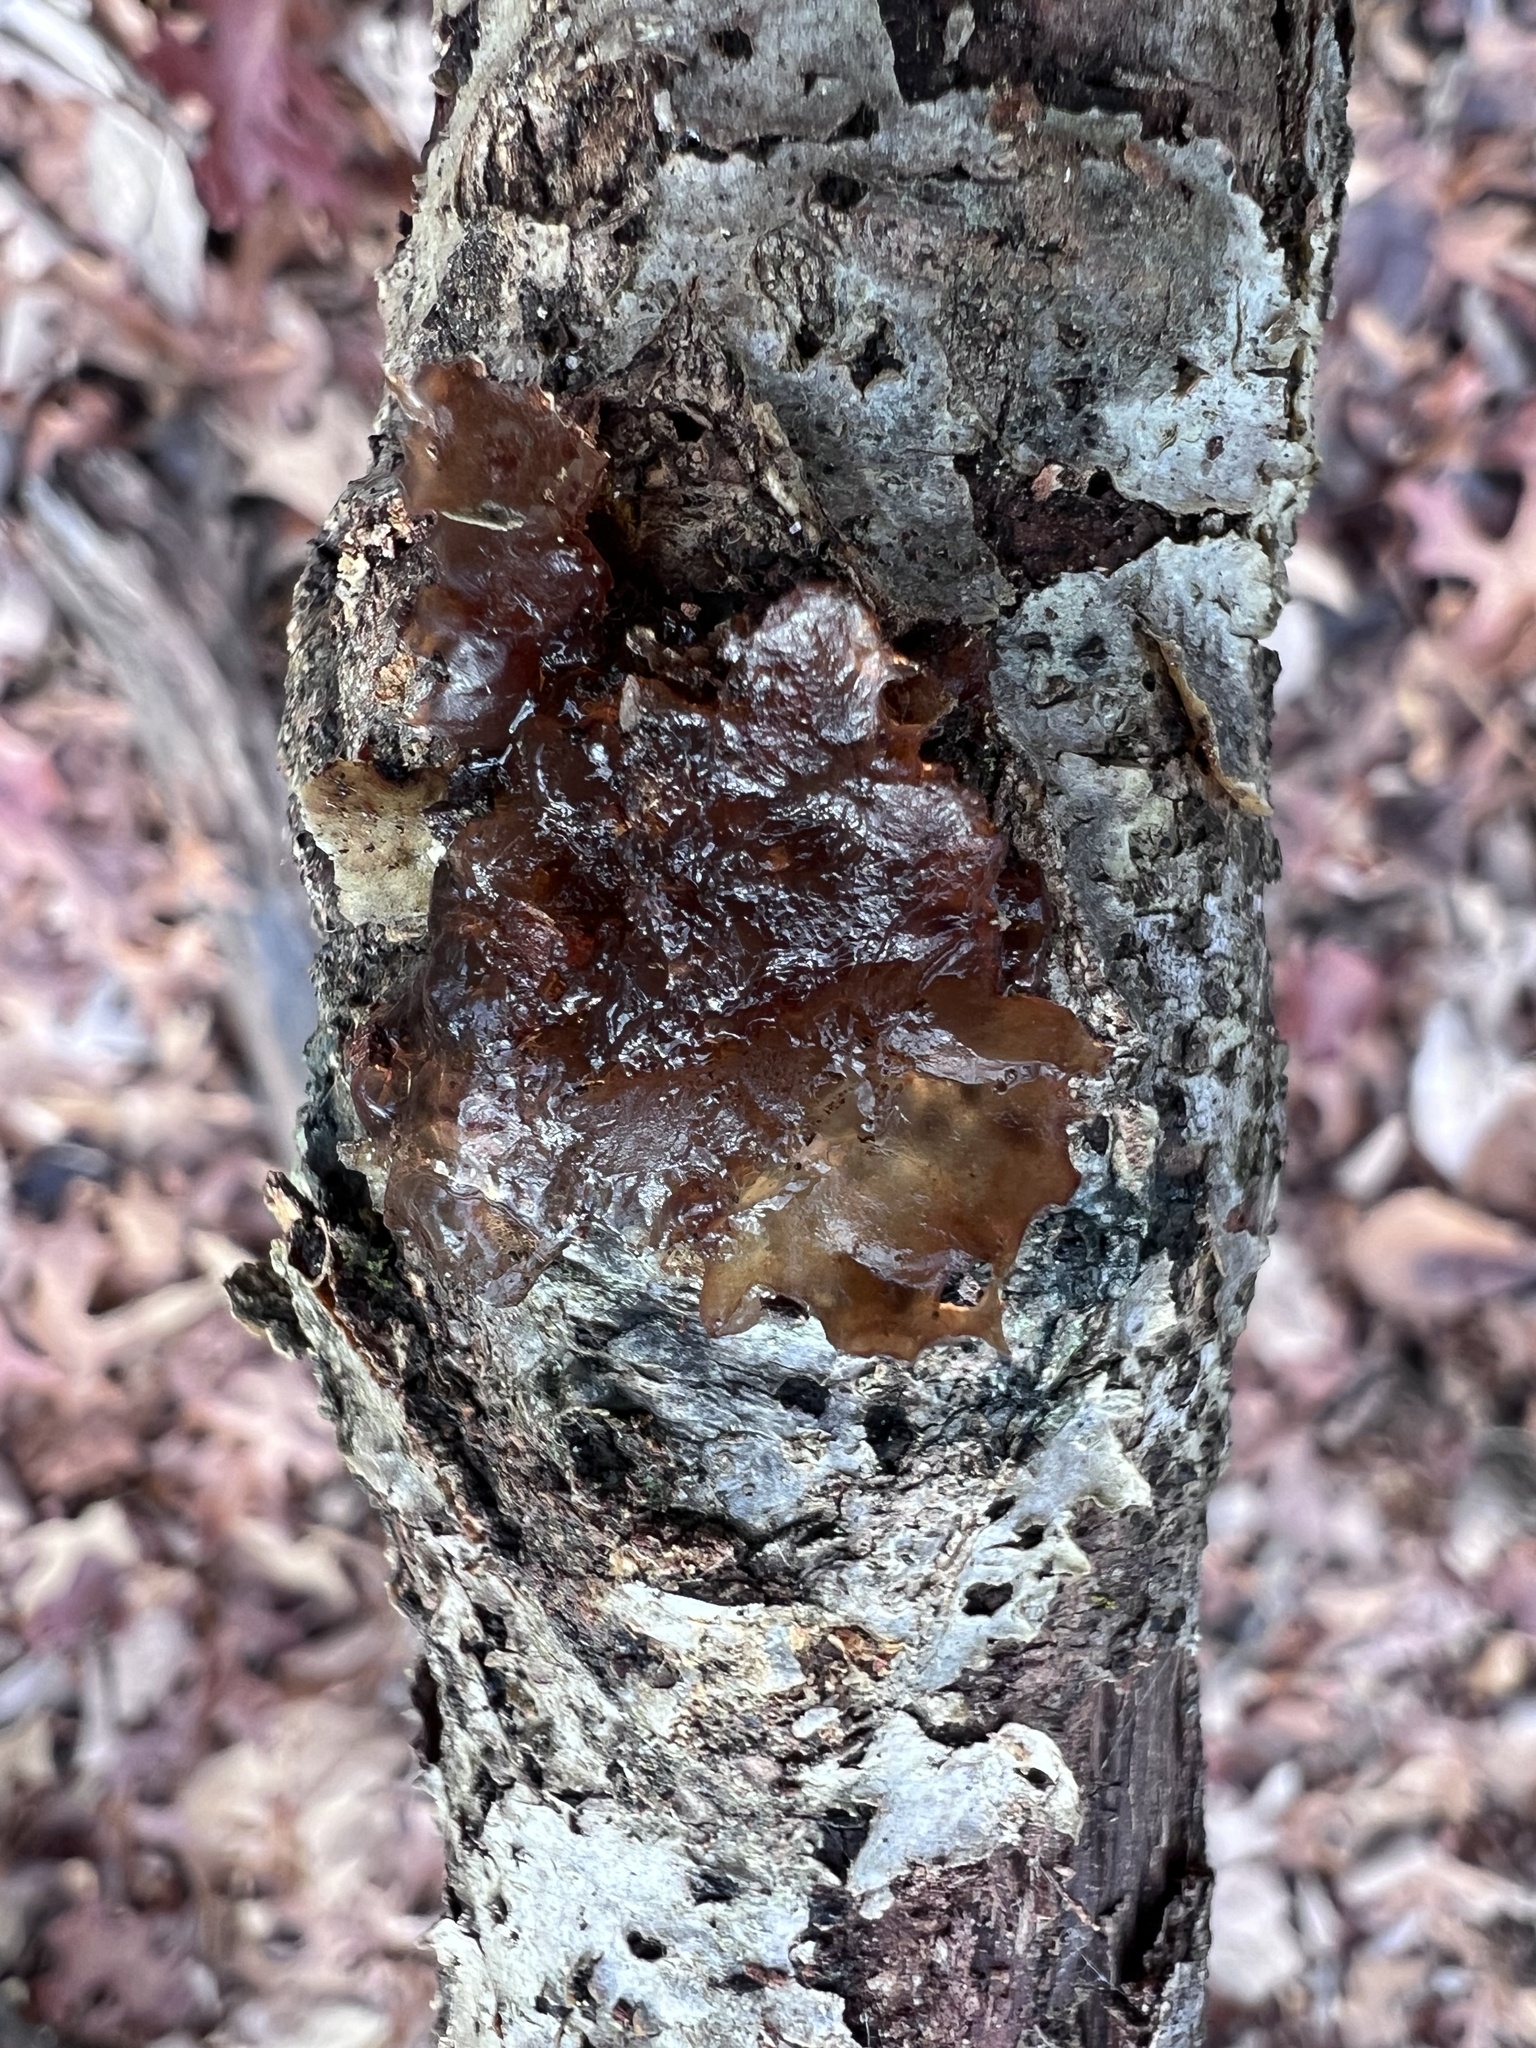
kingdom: Fungi
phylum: Basidiomycota
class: Agaricomycetes
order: Auriculariales
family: Auriculariaceae
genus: Exidia
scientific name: Exidia
